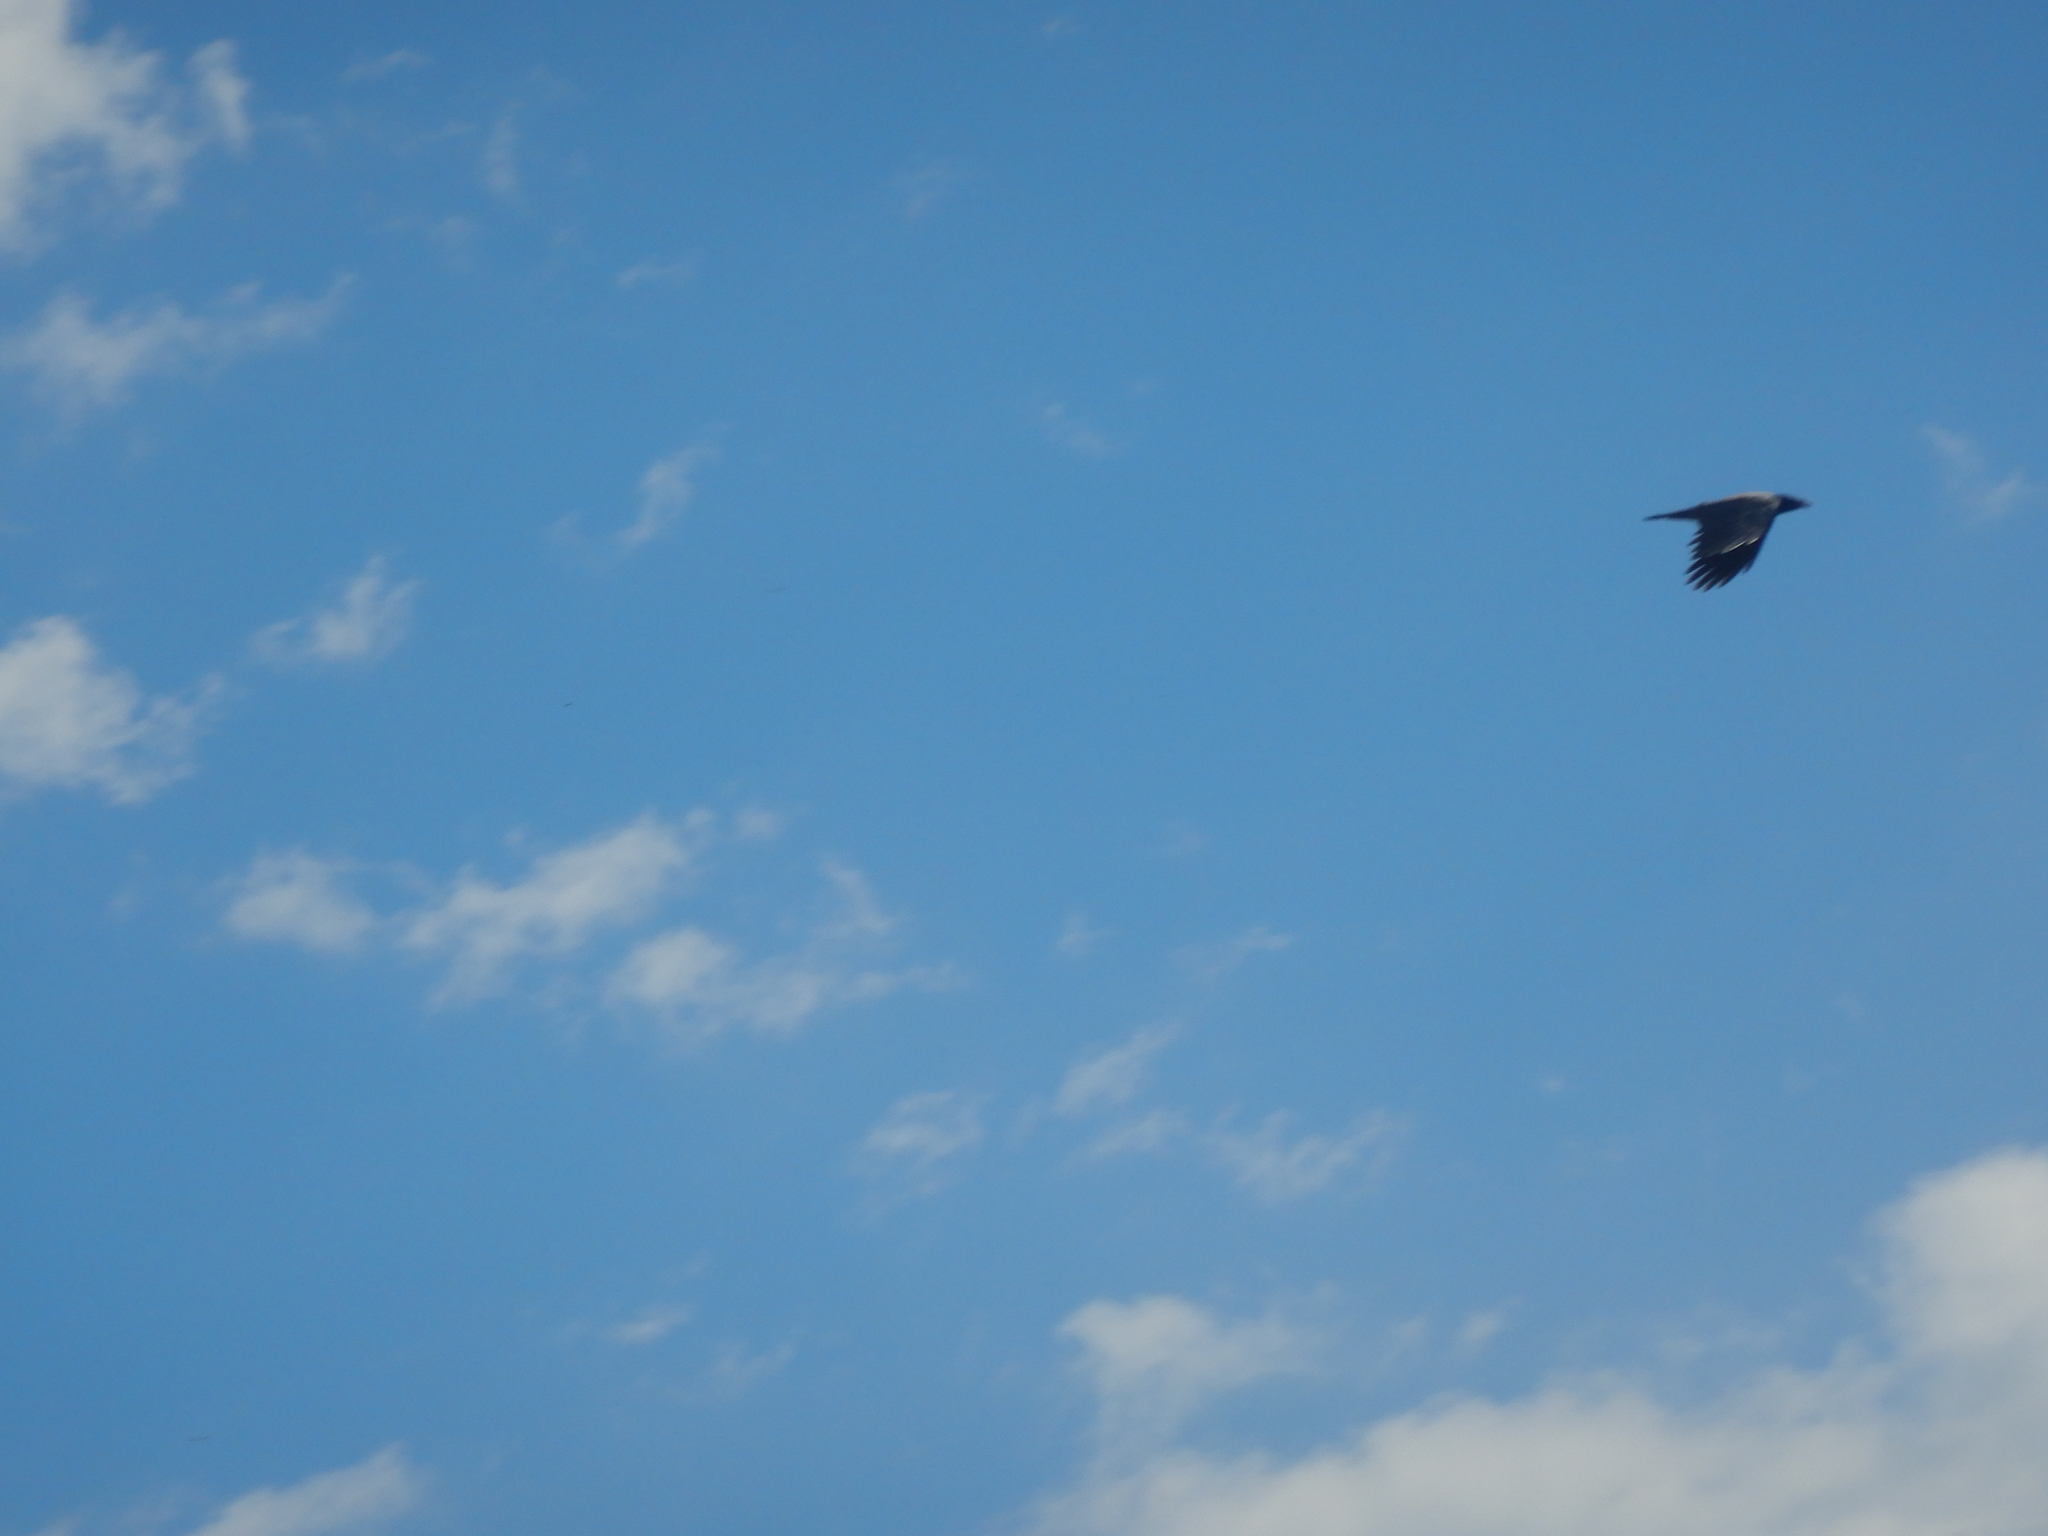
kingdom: Animalia
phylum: Chordata
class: Aves
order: Passeriformes
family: Corvidae
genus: Corvus
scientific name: Corvus cornix
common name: Hooded crow
